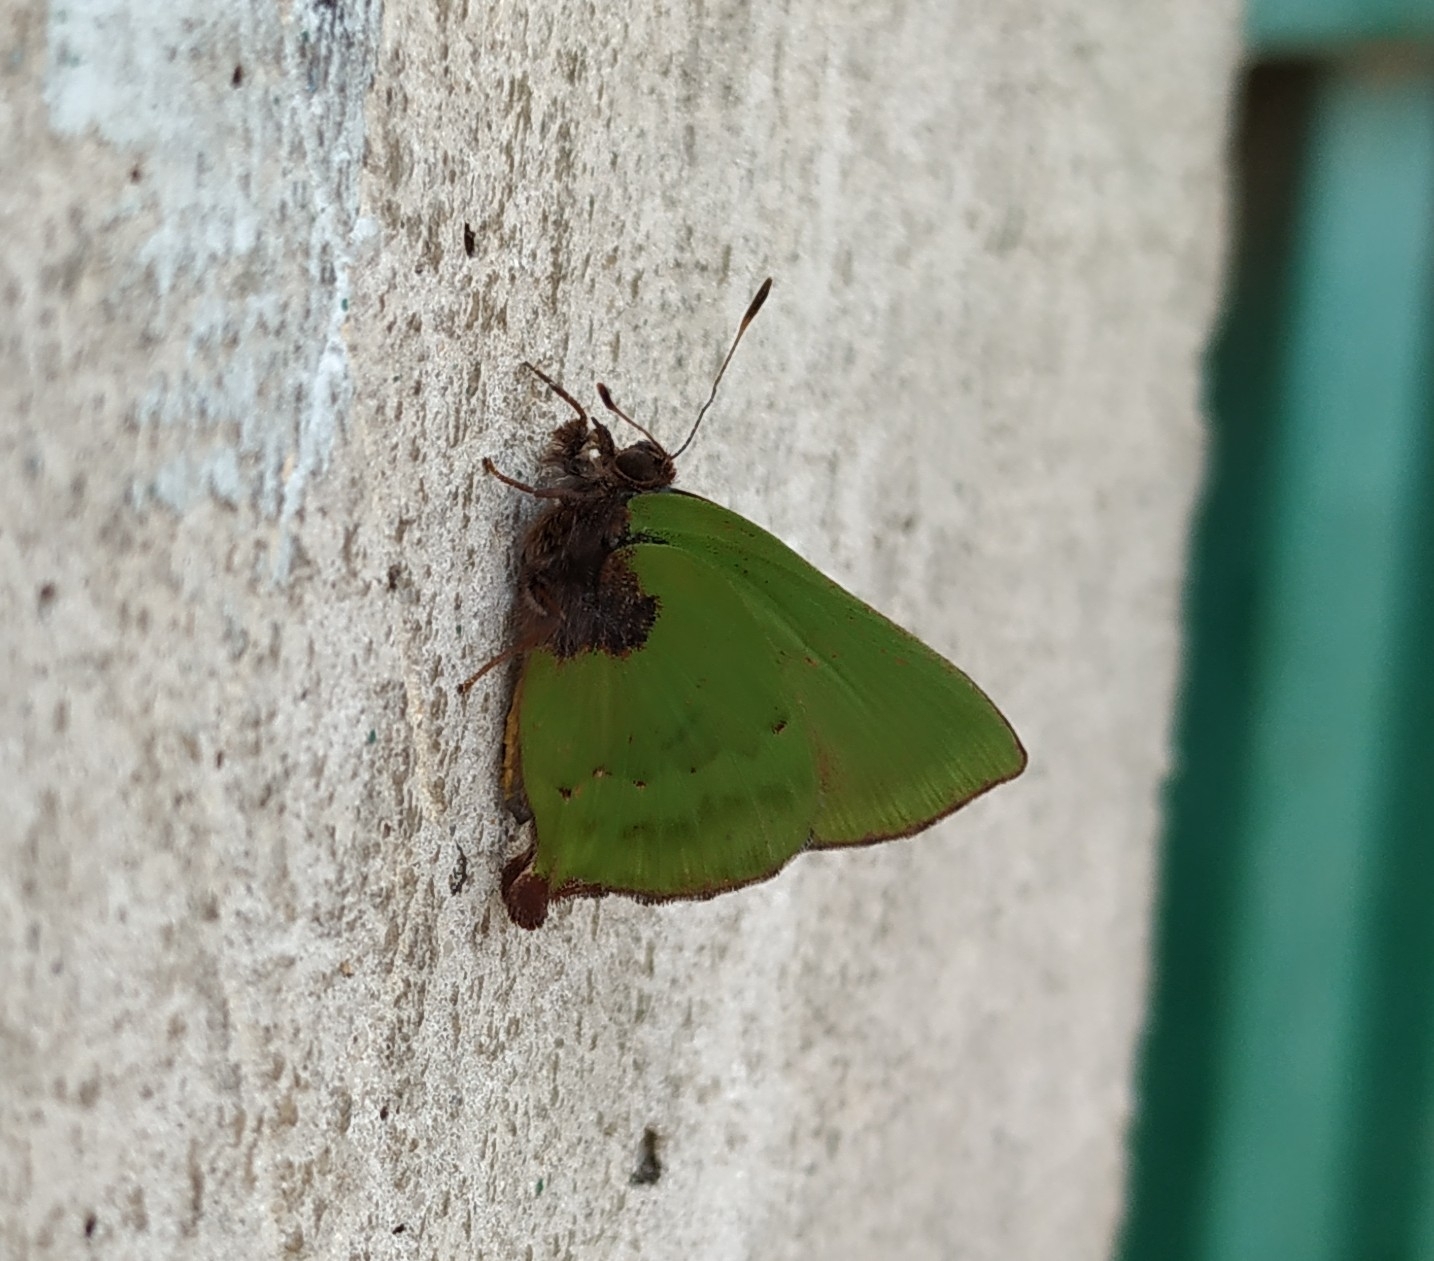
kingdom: Animalia
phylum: Arthropoda
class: Insecta
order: Lepidoptera
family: Lycaenidae
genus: Cyanophrys
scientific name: Cyanophrys pseudolongula
